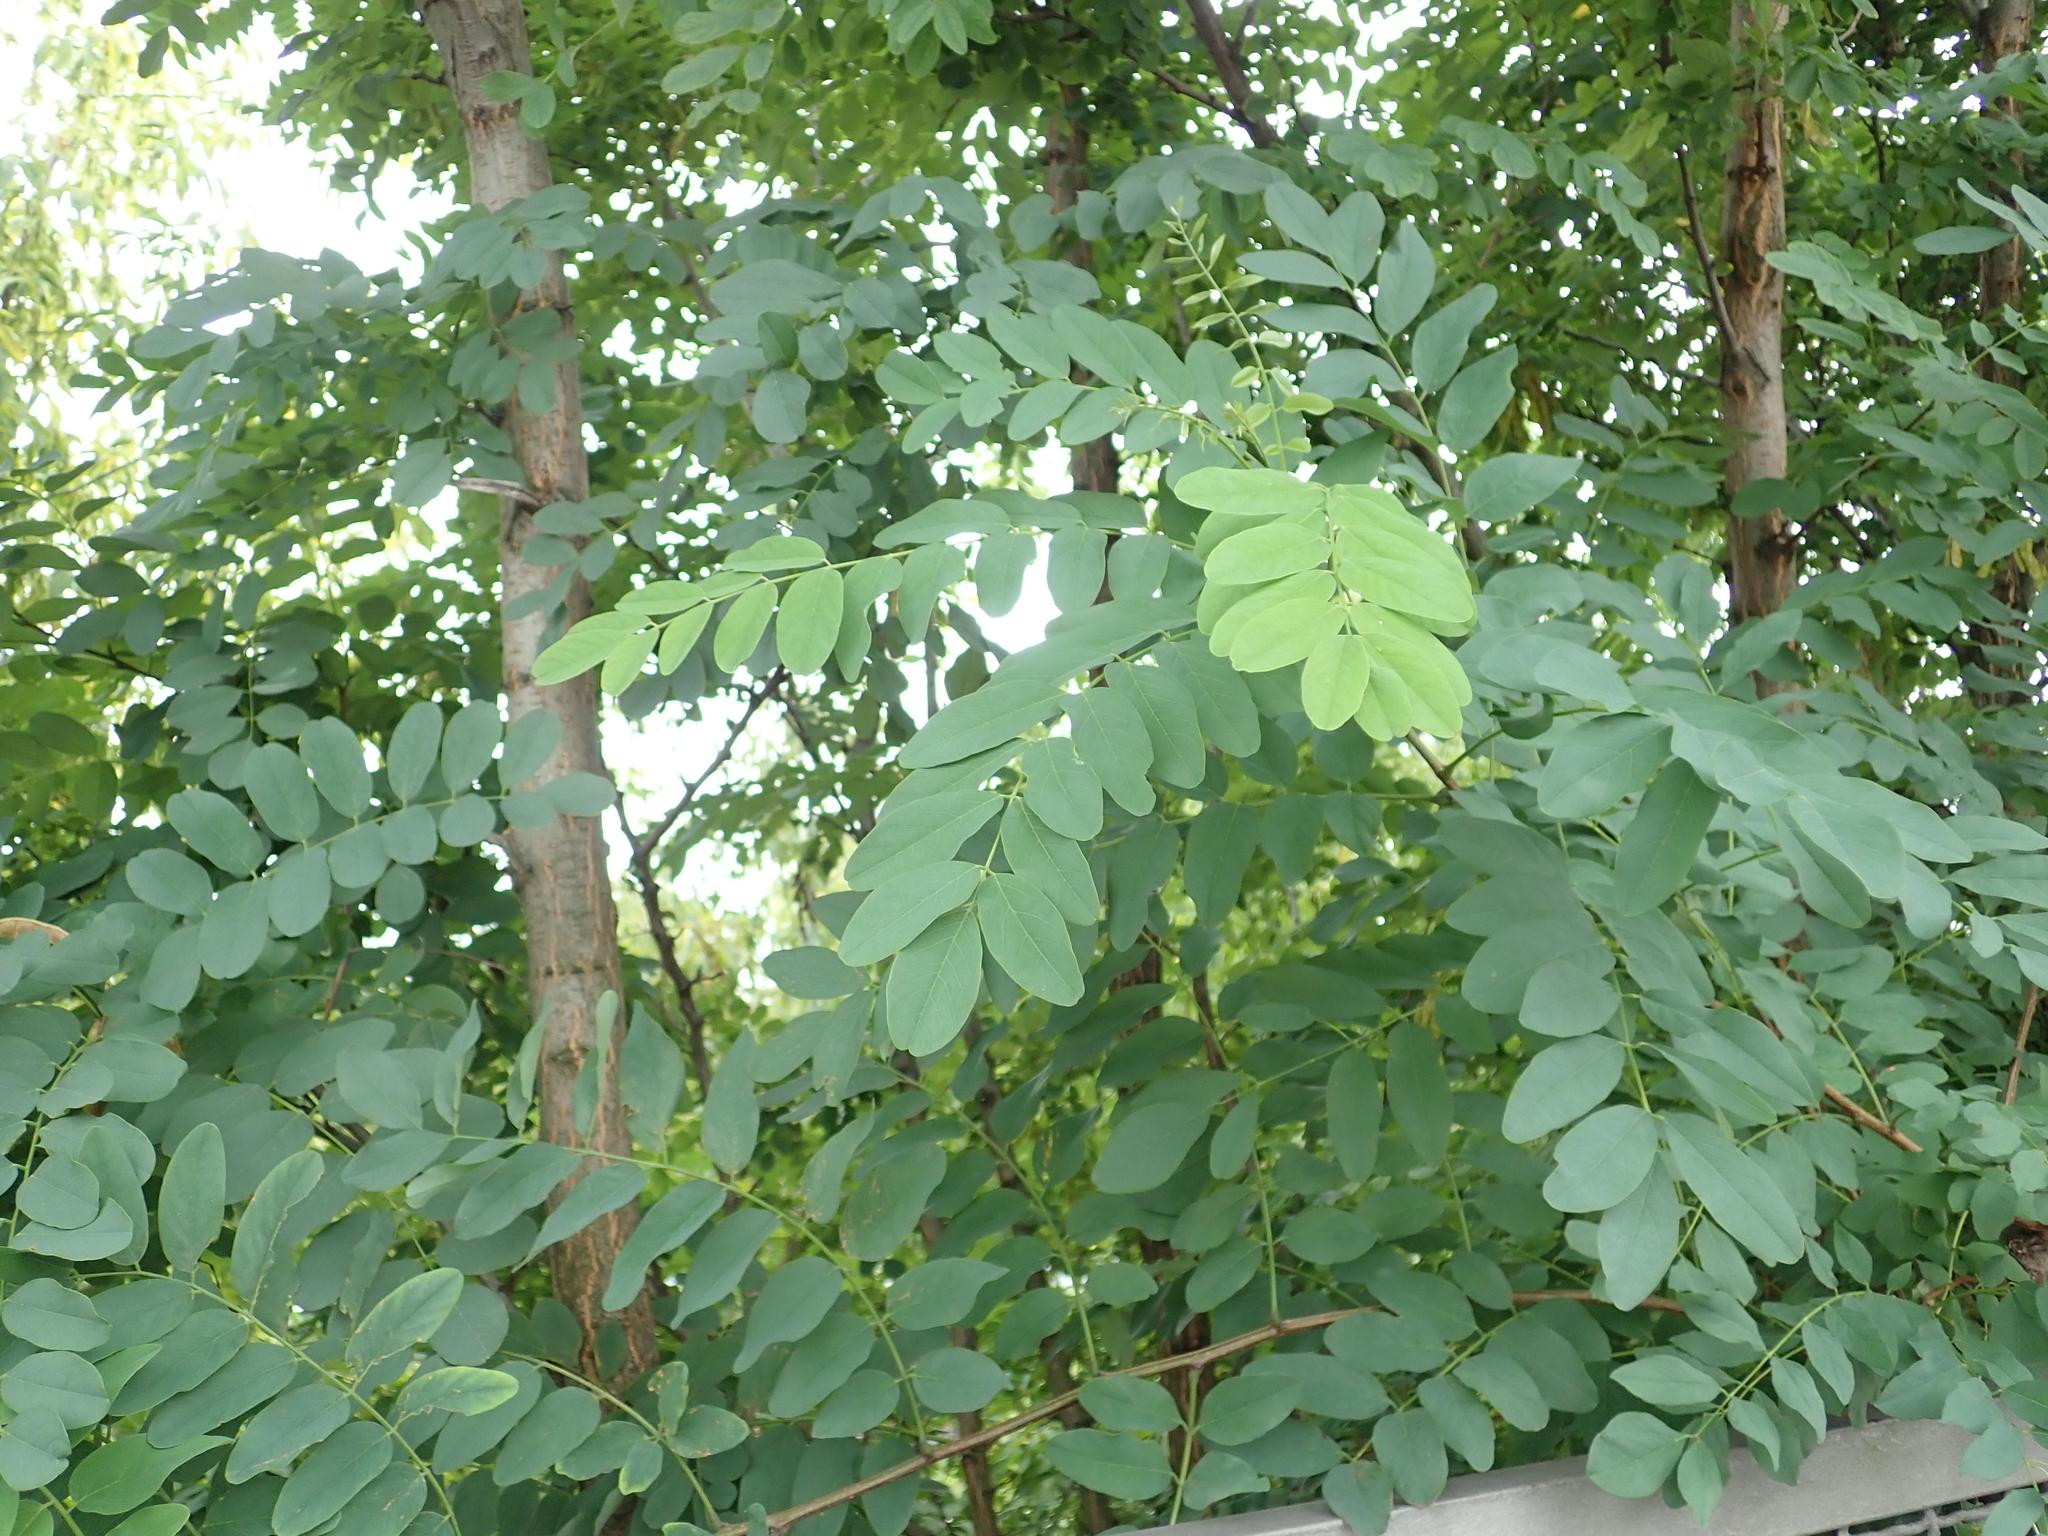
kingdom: Plantae
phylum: Tracheophyta
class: Magnoliopsida
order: Fabales
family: Fabaceae
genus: Robinia
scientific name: Robinia pseudoacacia
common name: Black locust
